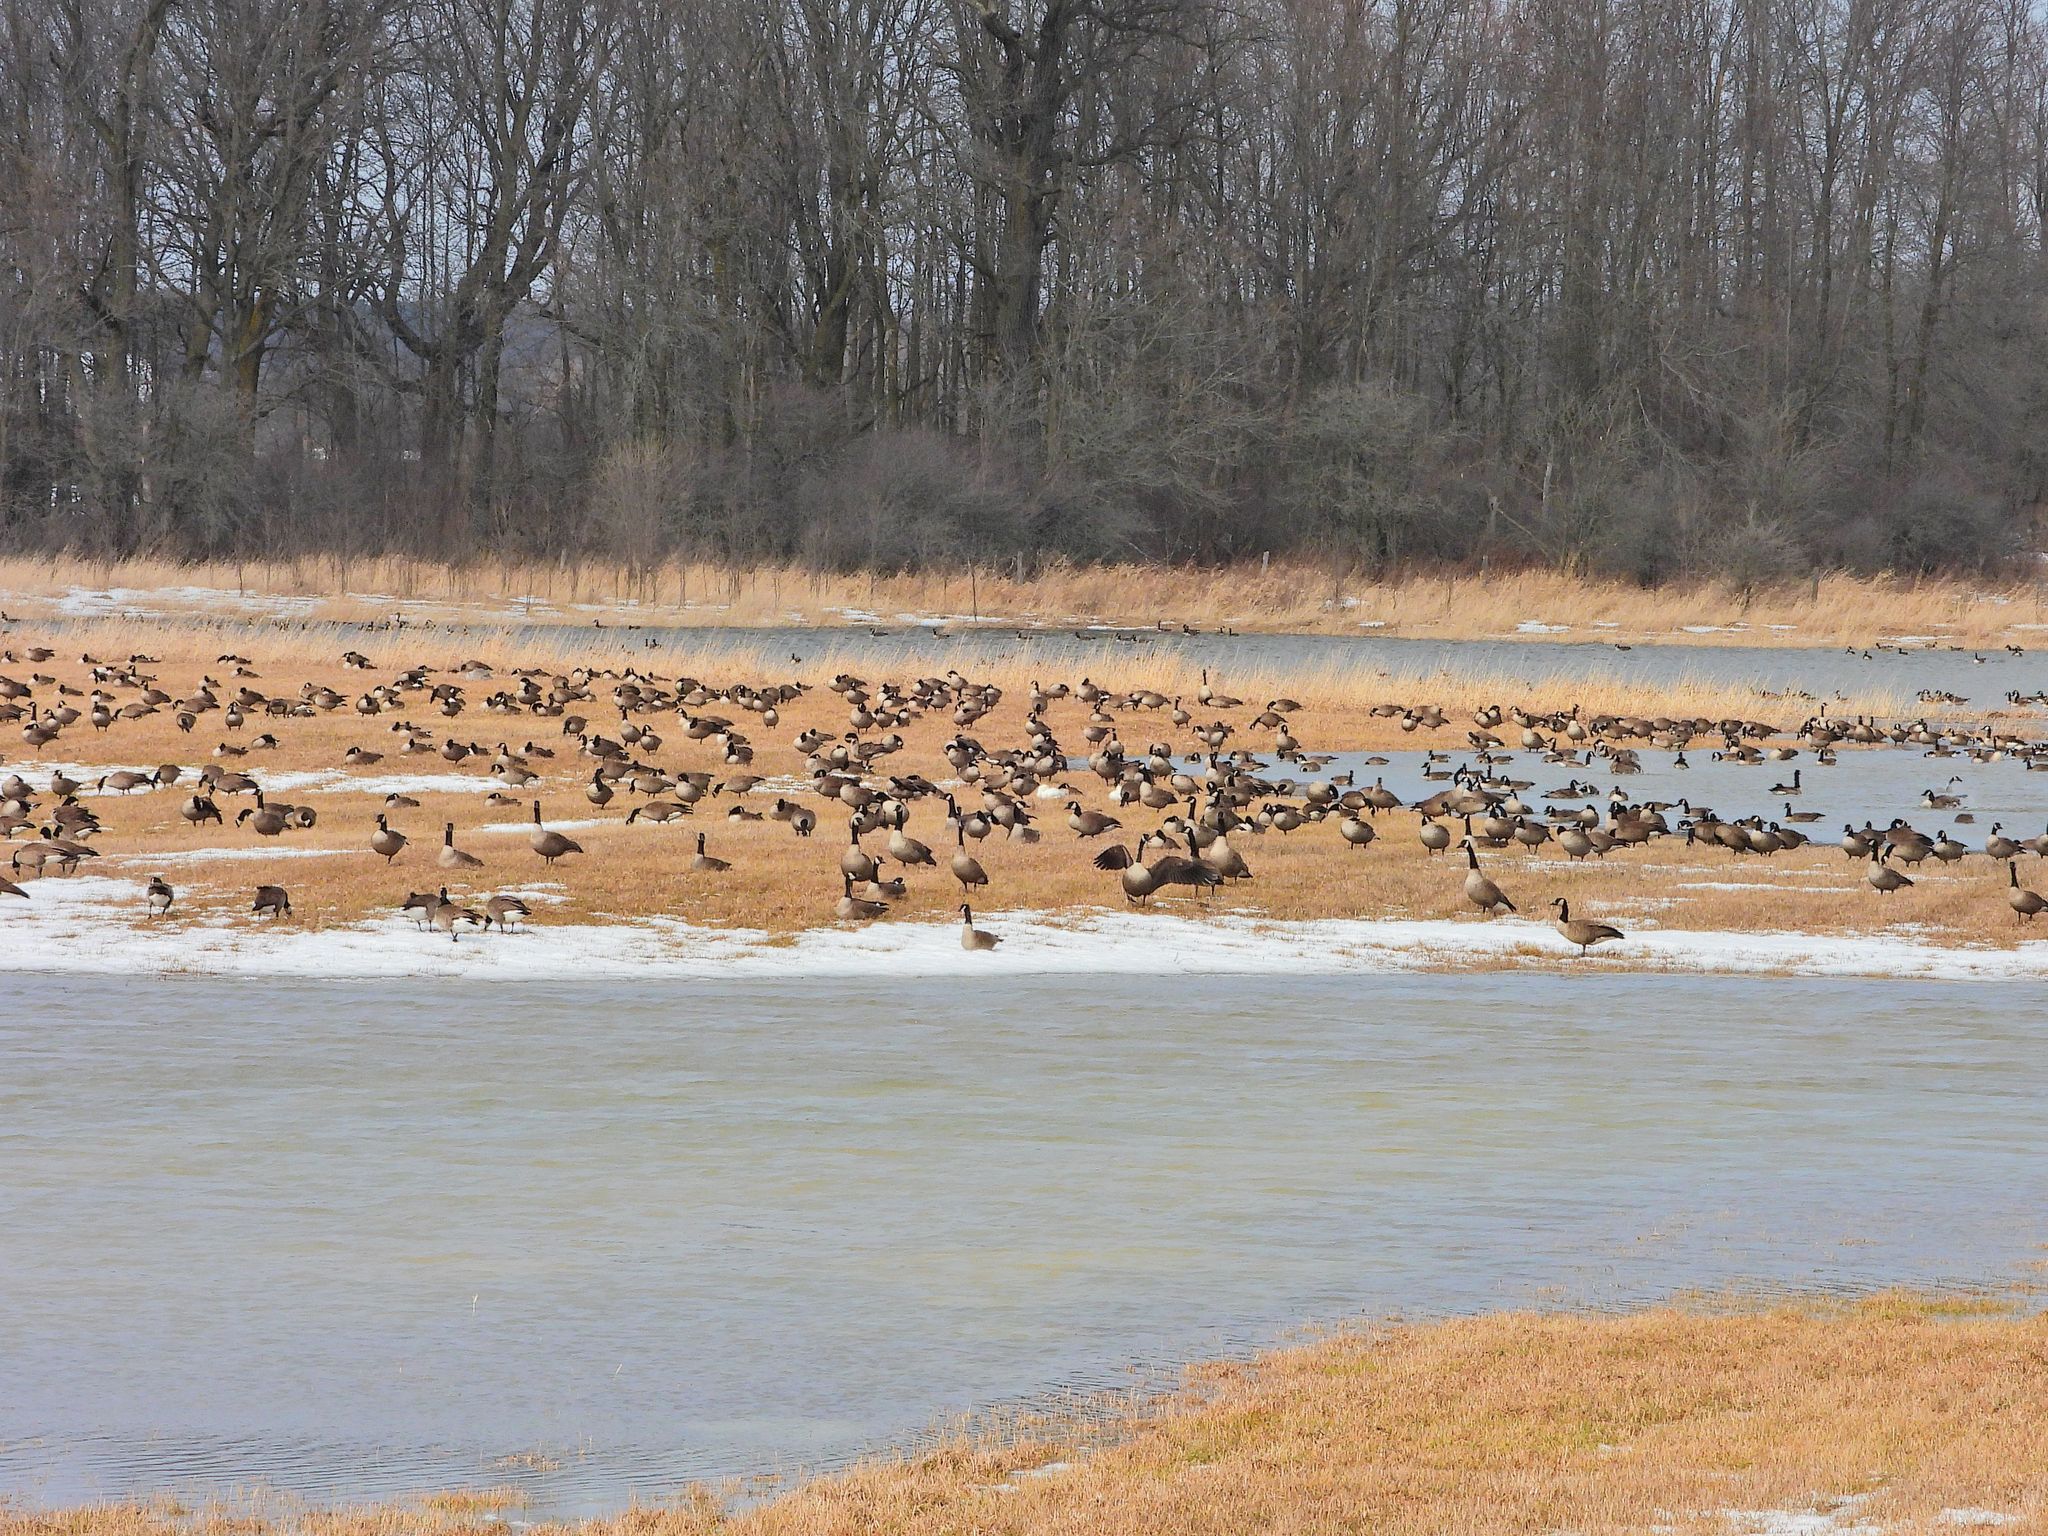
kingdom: Animalia
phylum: Chordata
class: Aves
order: Anseriformes
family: Anatidae
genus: Branta
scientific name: Branta canadensis
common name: Canada goose
